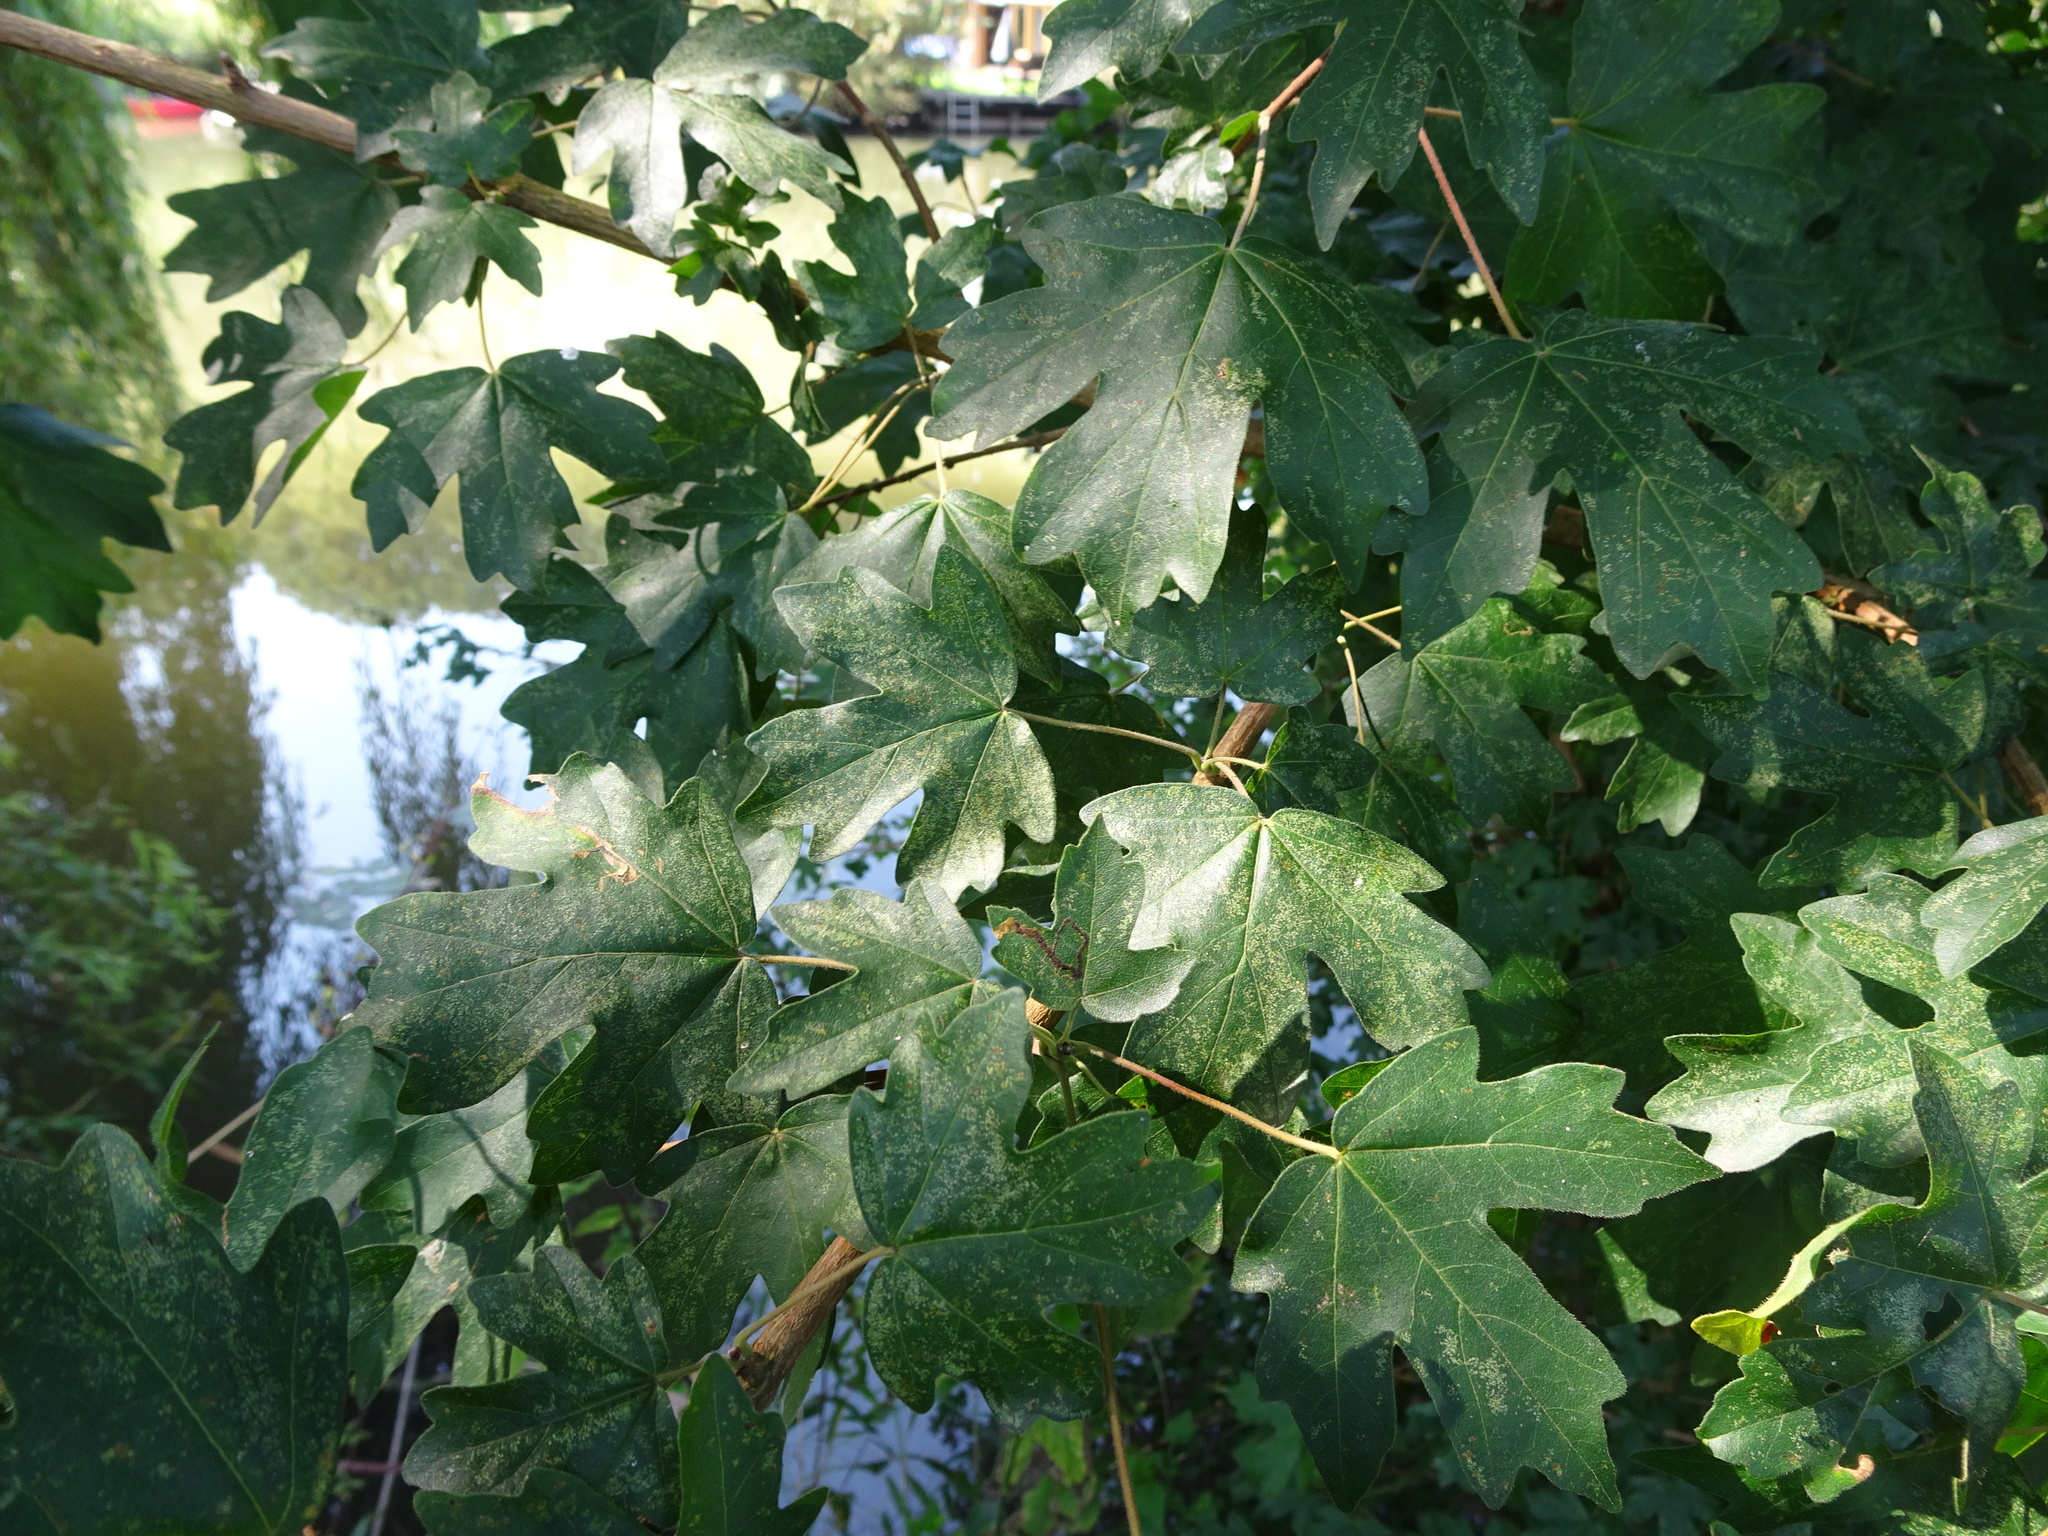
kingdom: Plantae
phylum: Tracheophyta
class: Magnoliopsida
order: Sapindales
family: Sapindaceae
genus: Acer
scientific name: Acer campestre
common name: Field maple
